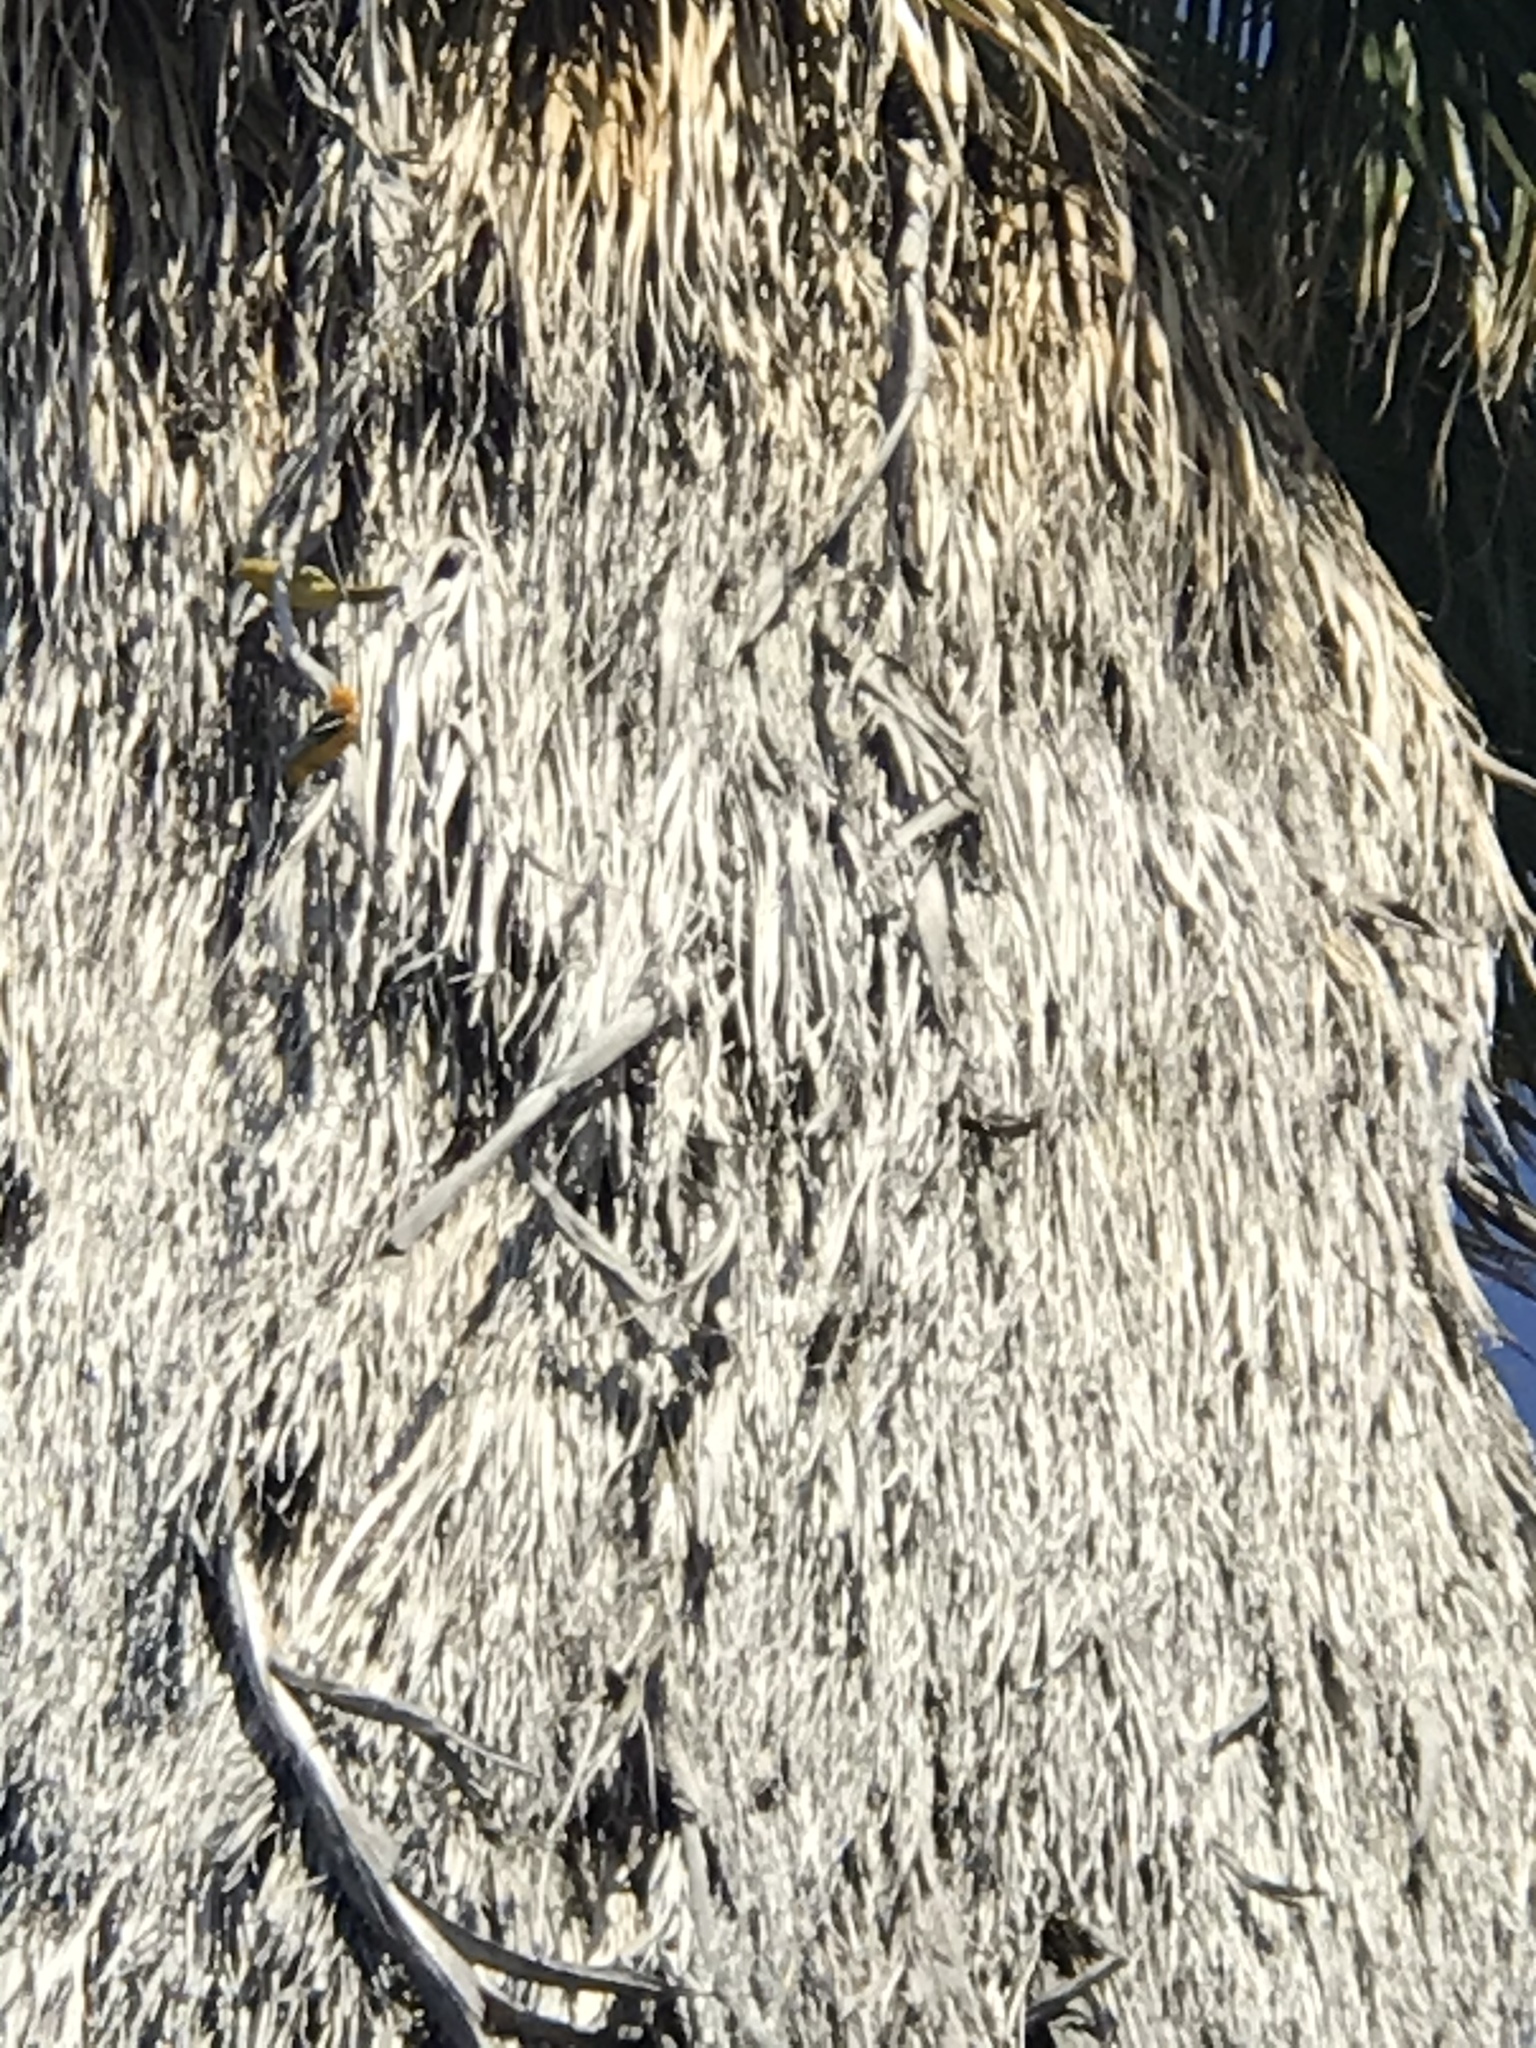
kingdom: Animalia
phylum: Chordata
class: Aves
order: Passeriformes
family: Icteridae
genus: Icterus
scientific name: Icterus cucullatus
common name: Hooded oriole
